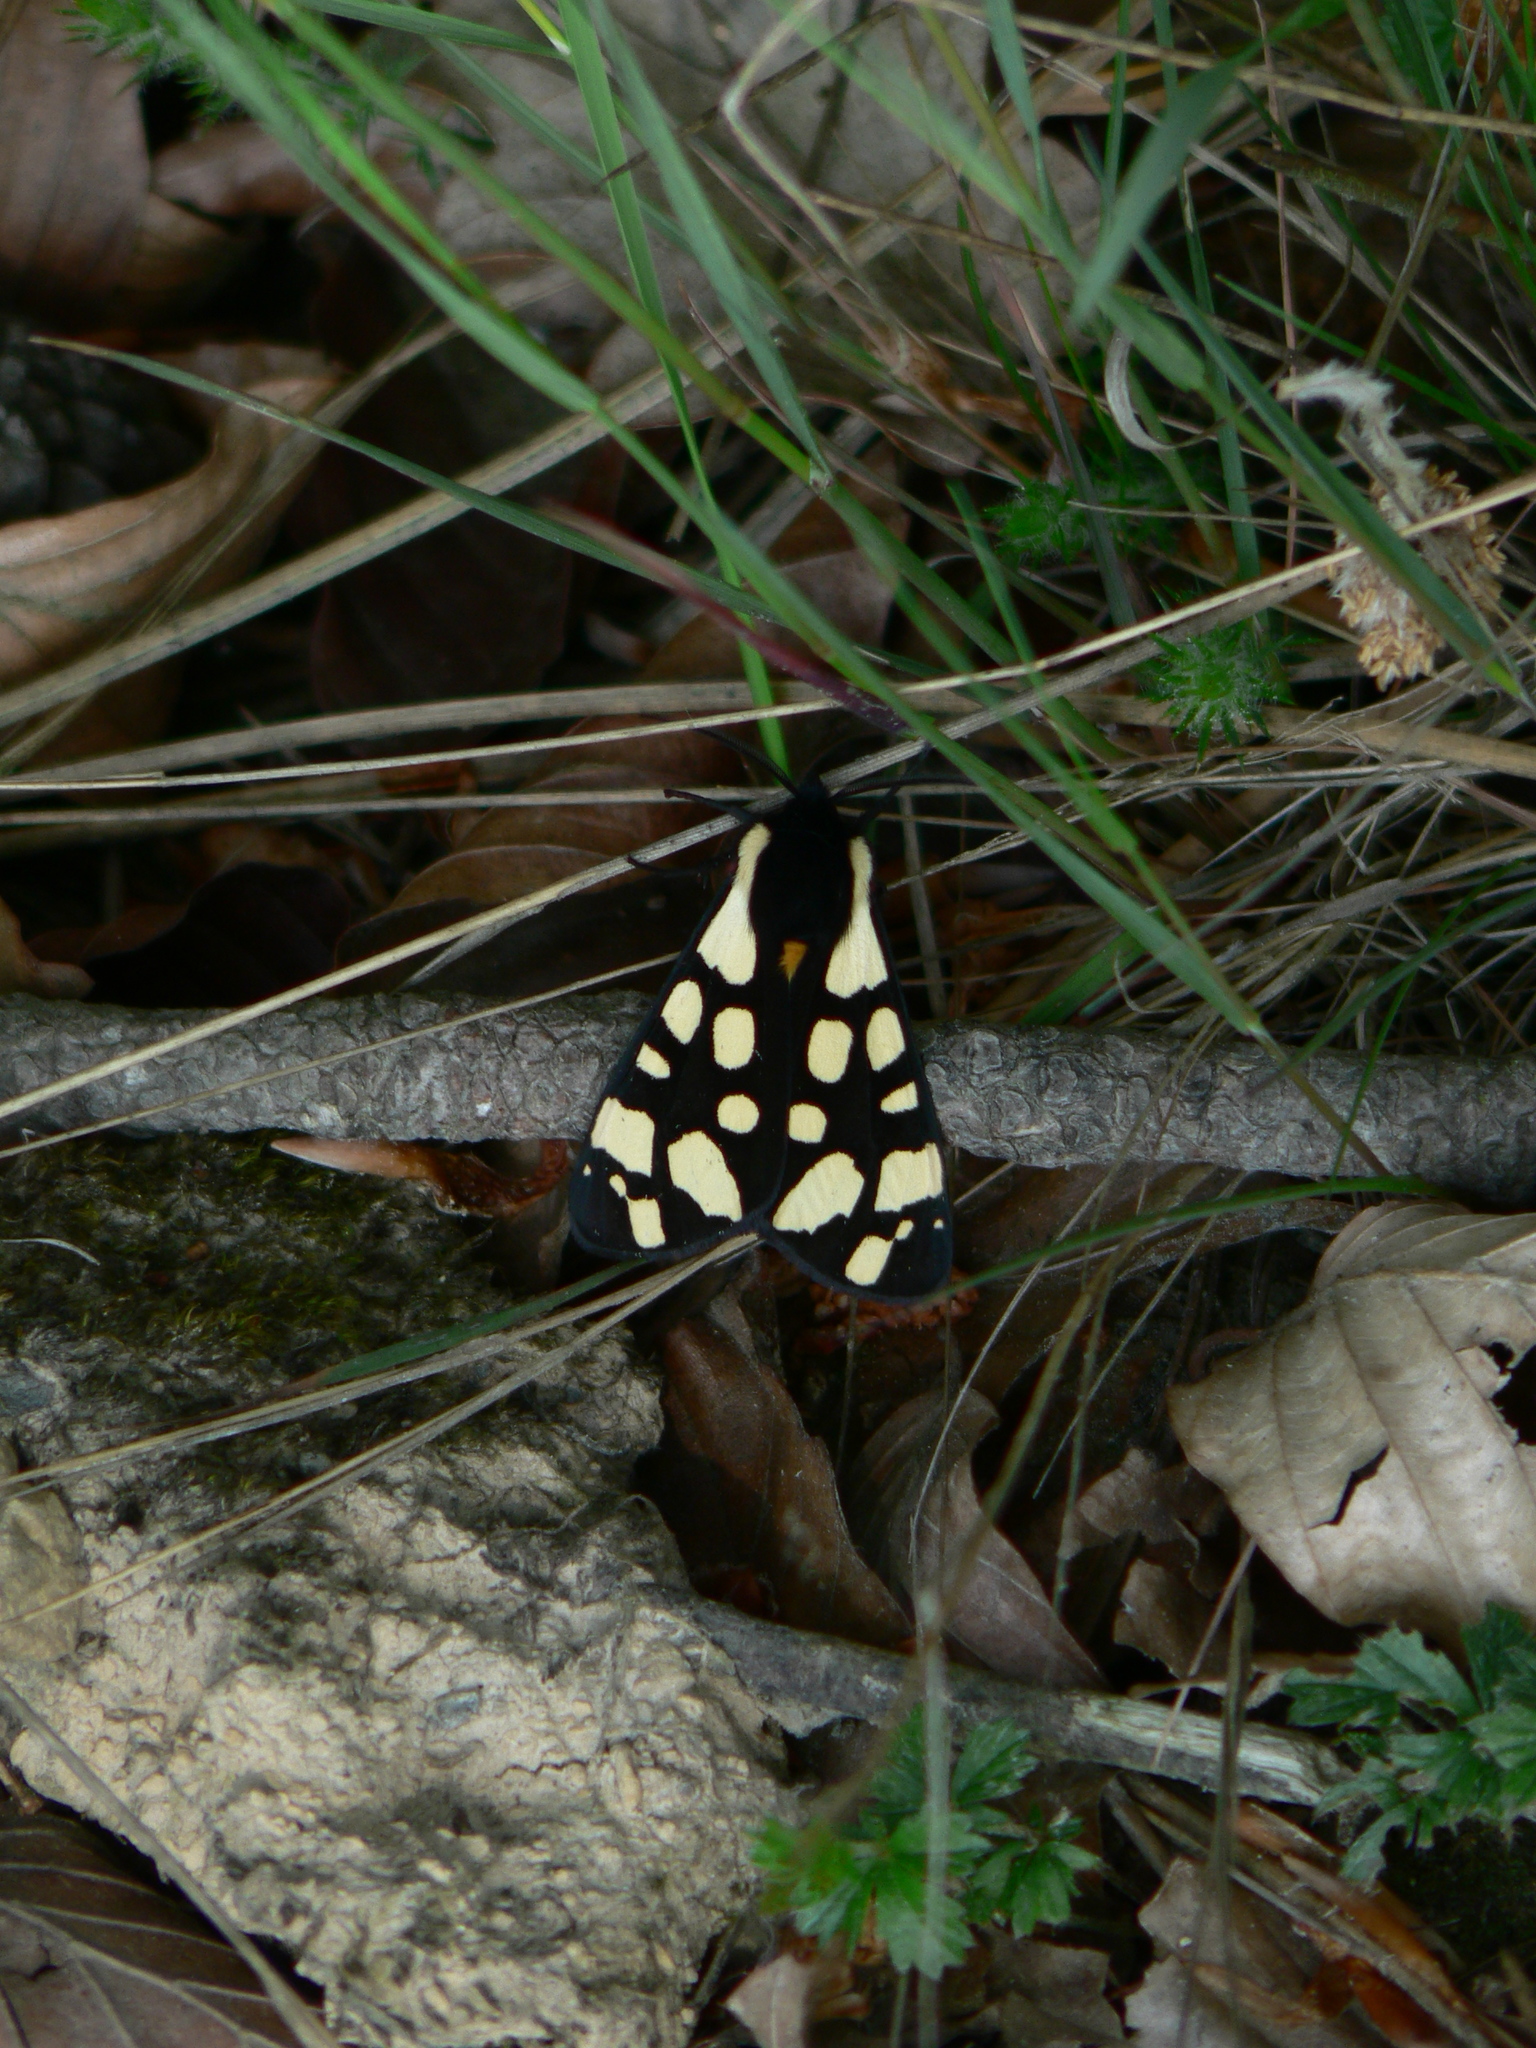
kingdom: Animalia
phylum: Arthropoda
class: Insecta
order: Lepidoptera
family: Erebidae
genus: Epicallia
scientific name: Epicallia villica
